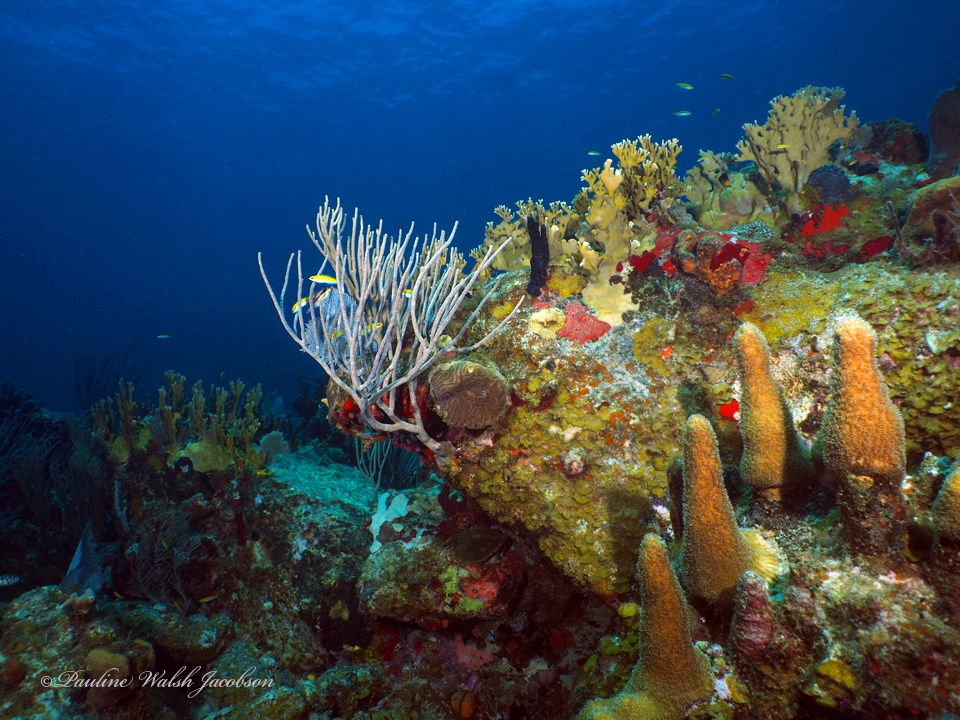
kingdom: Animalia
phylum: Chordata
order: Perciformes
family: Labridae
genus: Thalassoma
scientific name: Thalassoma bifasciatum
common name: Bluehead wrasse
